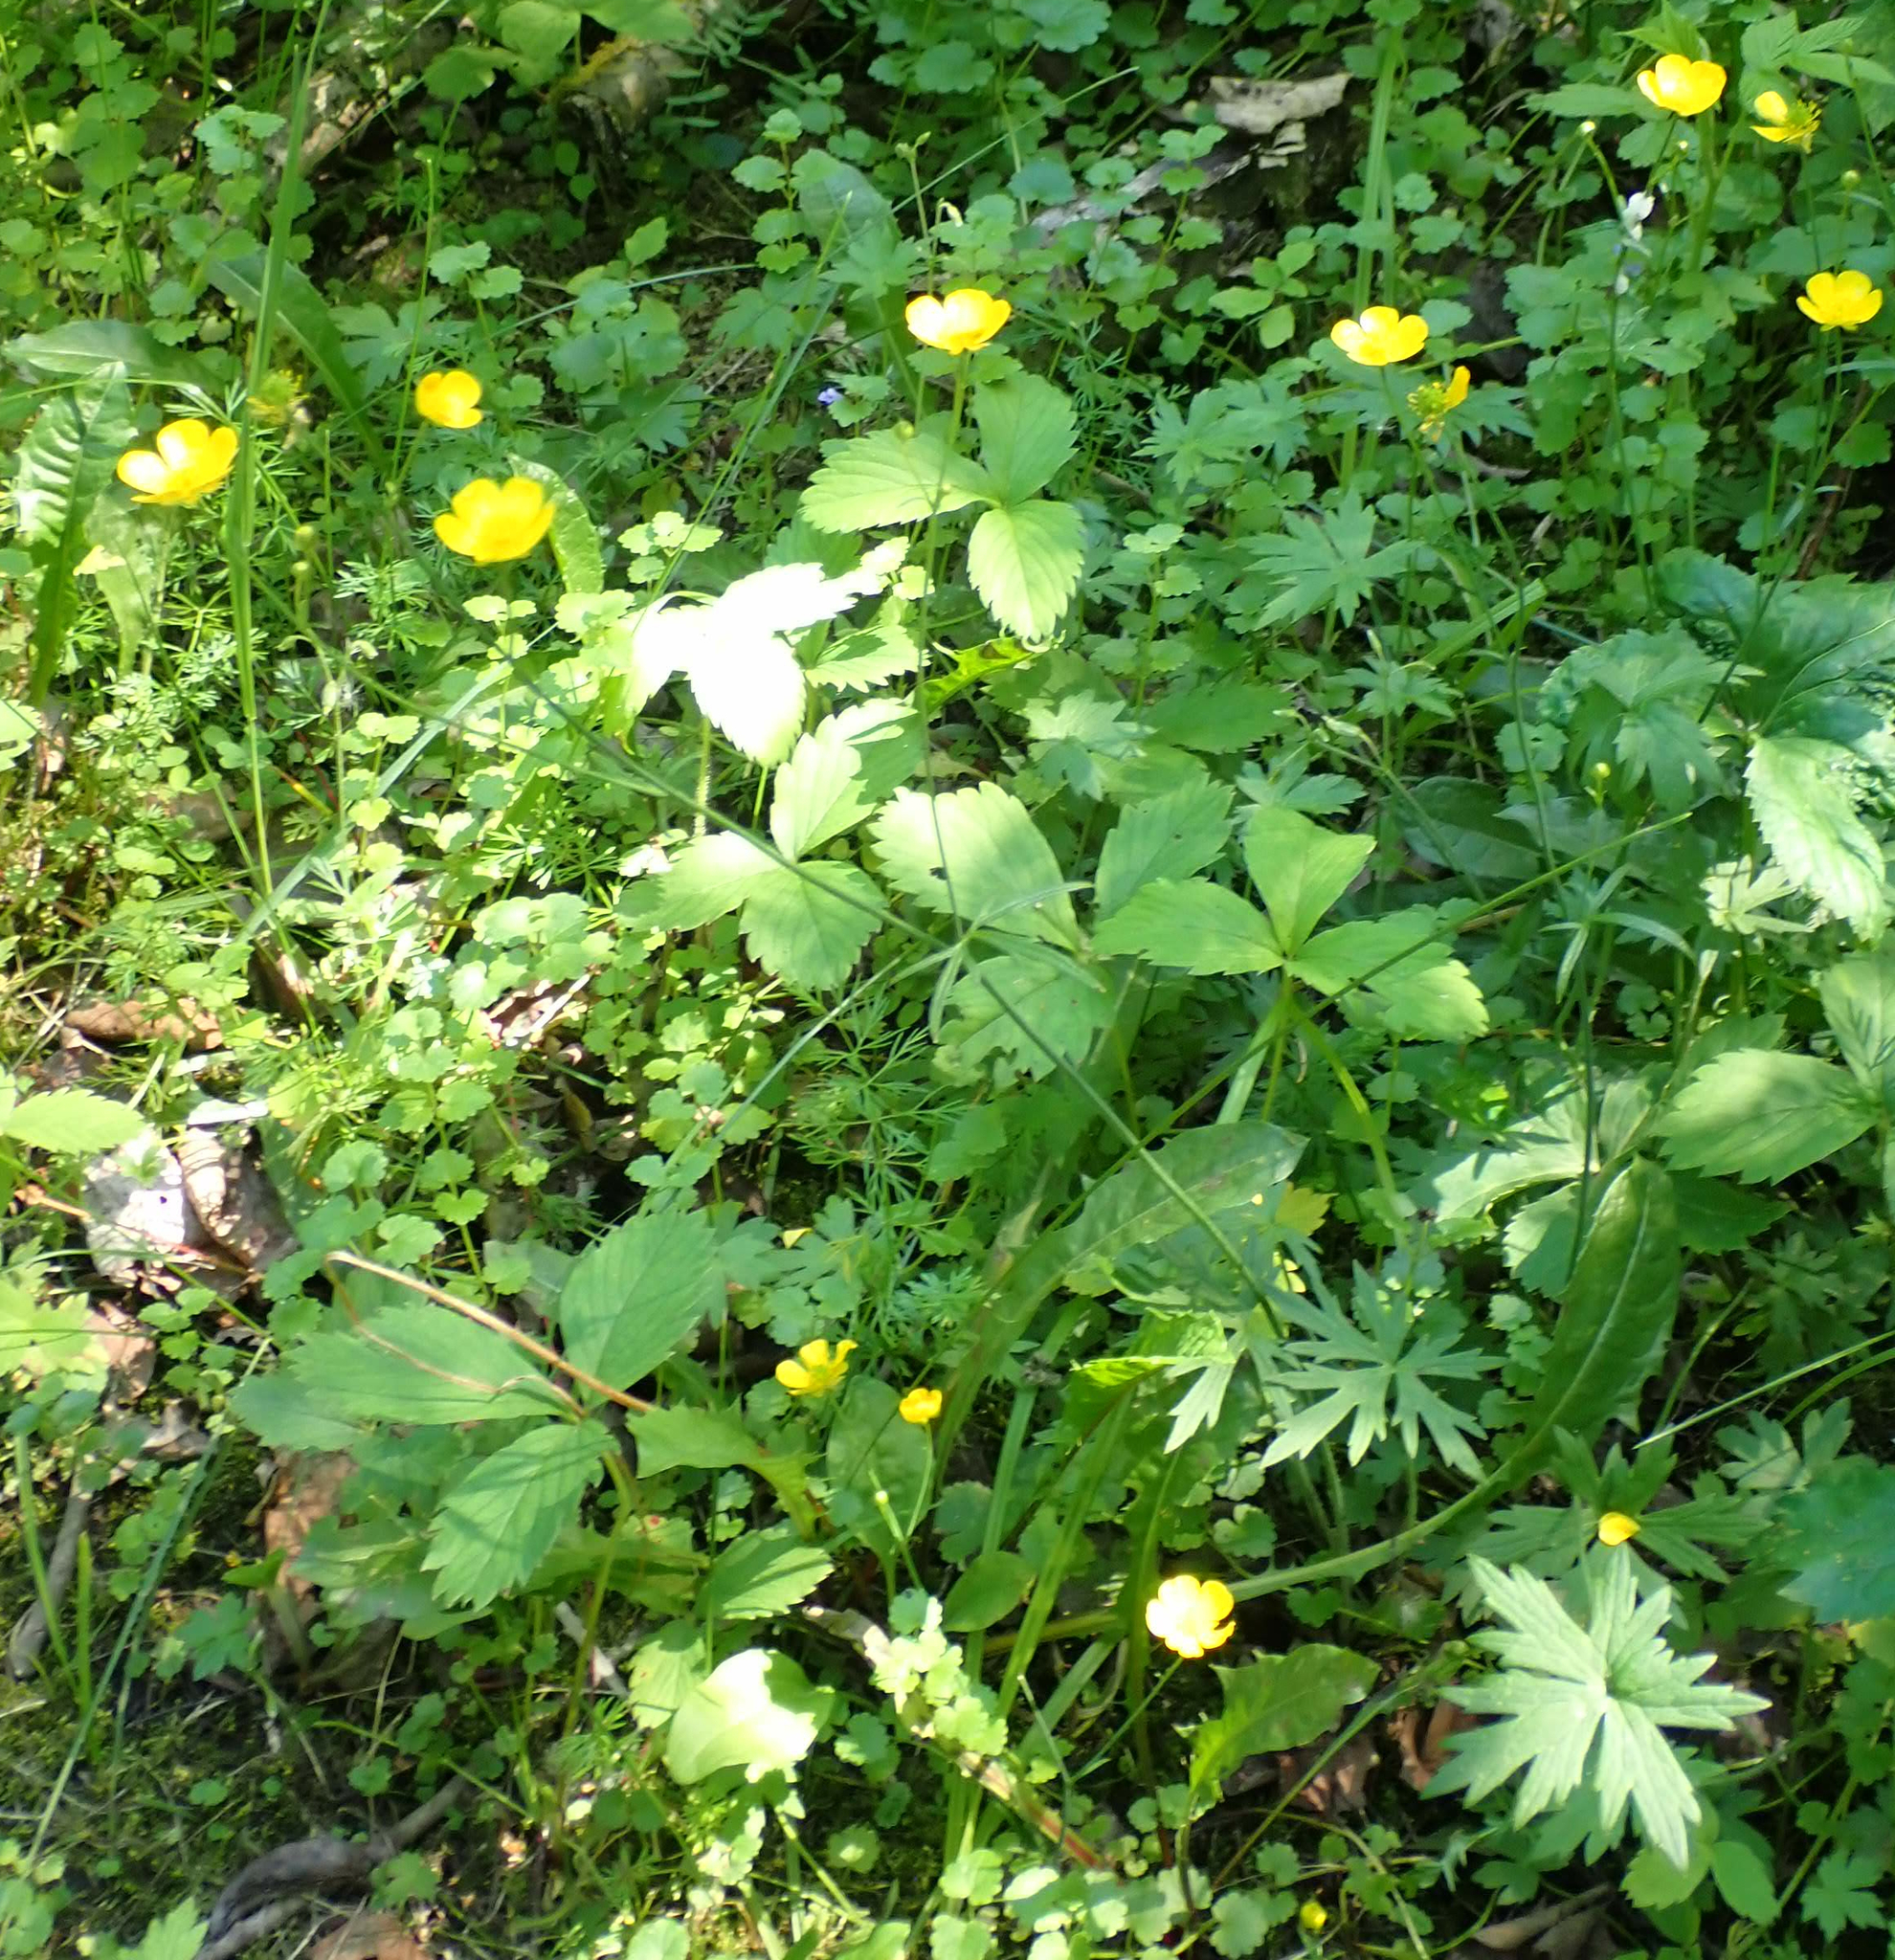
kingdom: Plantae
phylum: Tracheophyta
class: Magnoliopsida
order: Ranunculales
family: Ranunculaceae
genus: Ranunculus
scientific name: Ranunculus acris
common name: Meadow buttercup
